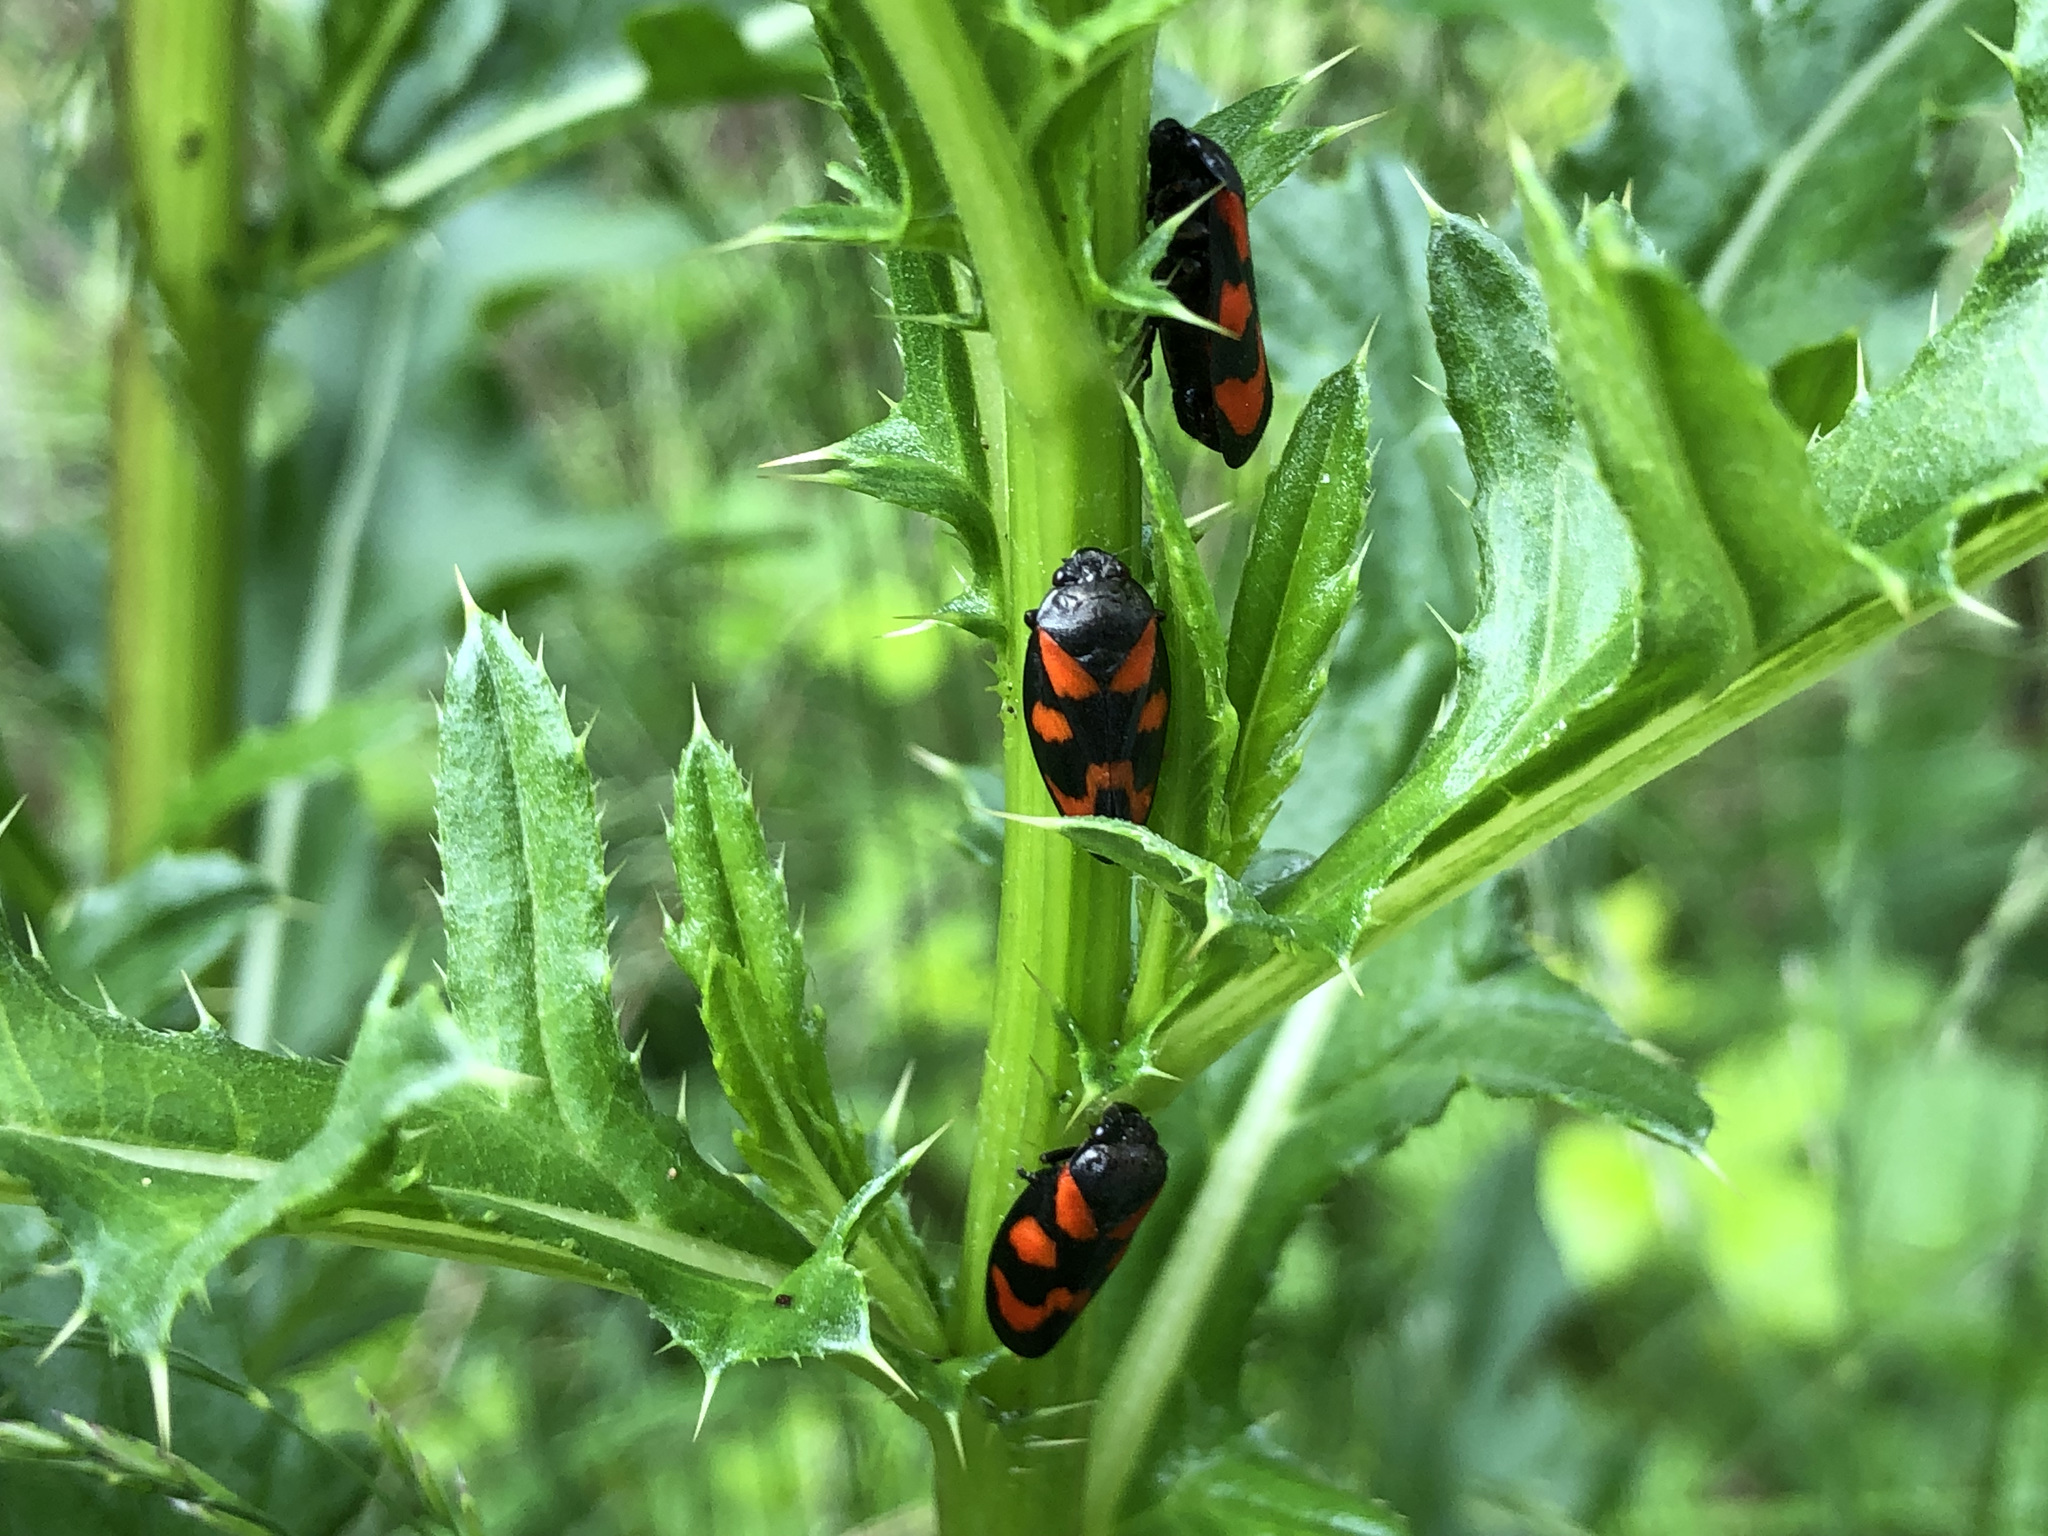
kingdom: Animalia
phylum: Arthropoda
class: Insecta
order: Hemiptera
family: Cercopidae
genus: Cercopis
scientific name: Cercopis vulnerata
